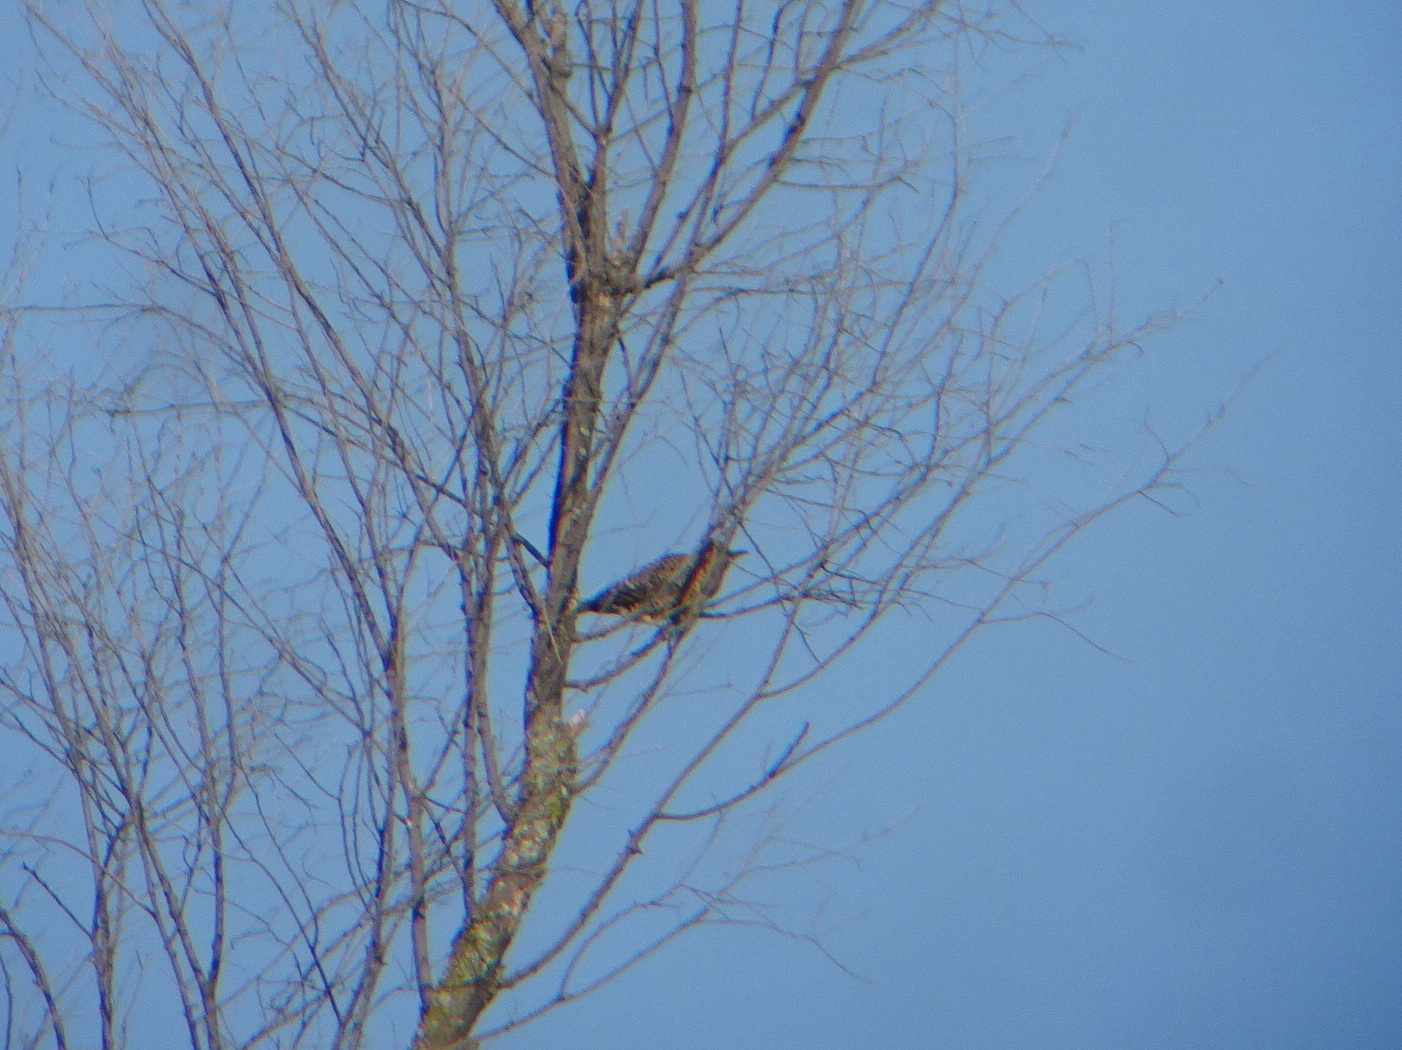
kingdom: Animalia
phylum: Chordata
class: Aves
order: Piciformes
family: Picidae
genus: Colaptes
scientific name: Colaptes auratus
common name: Northern flicker
